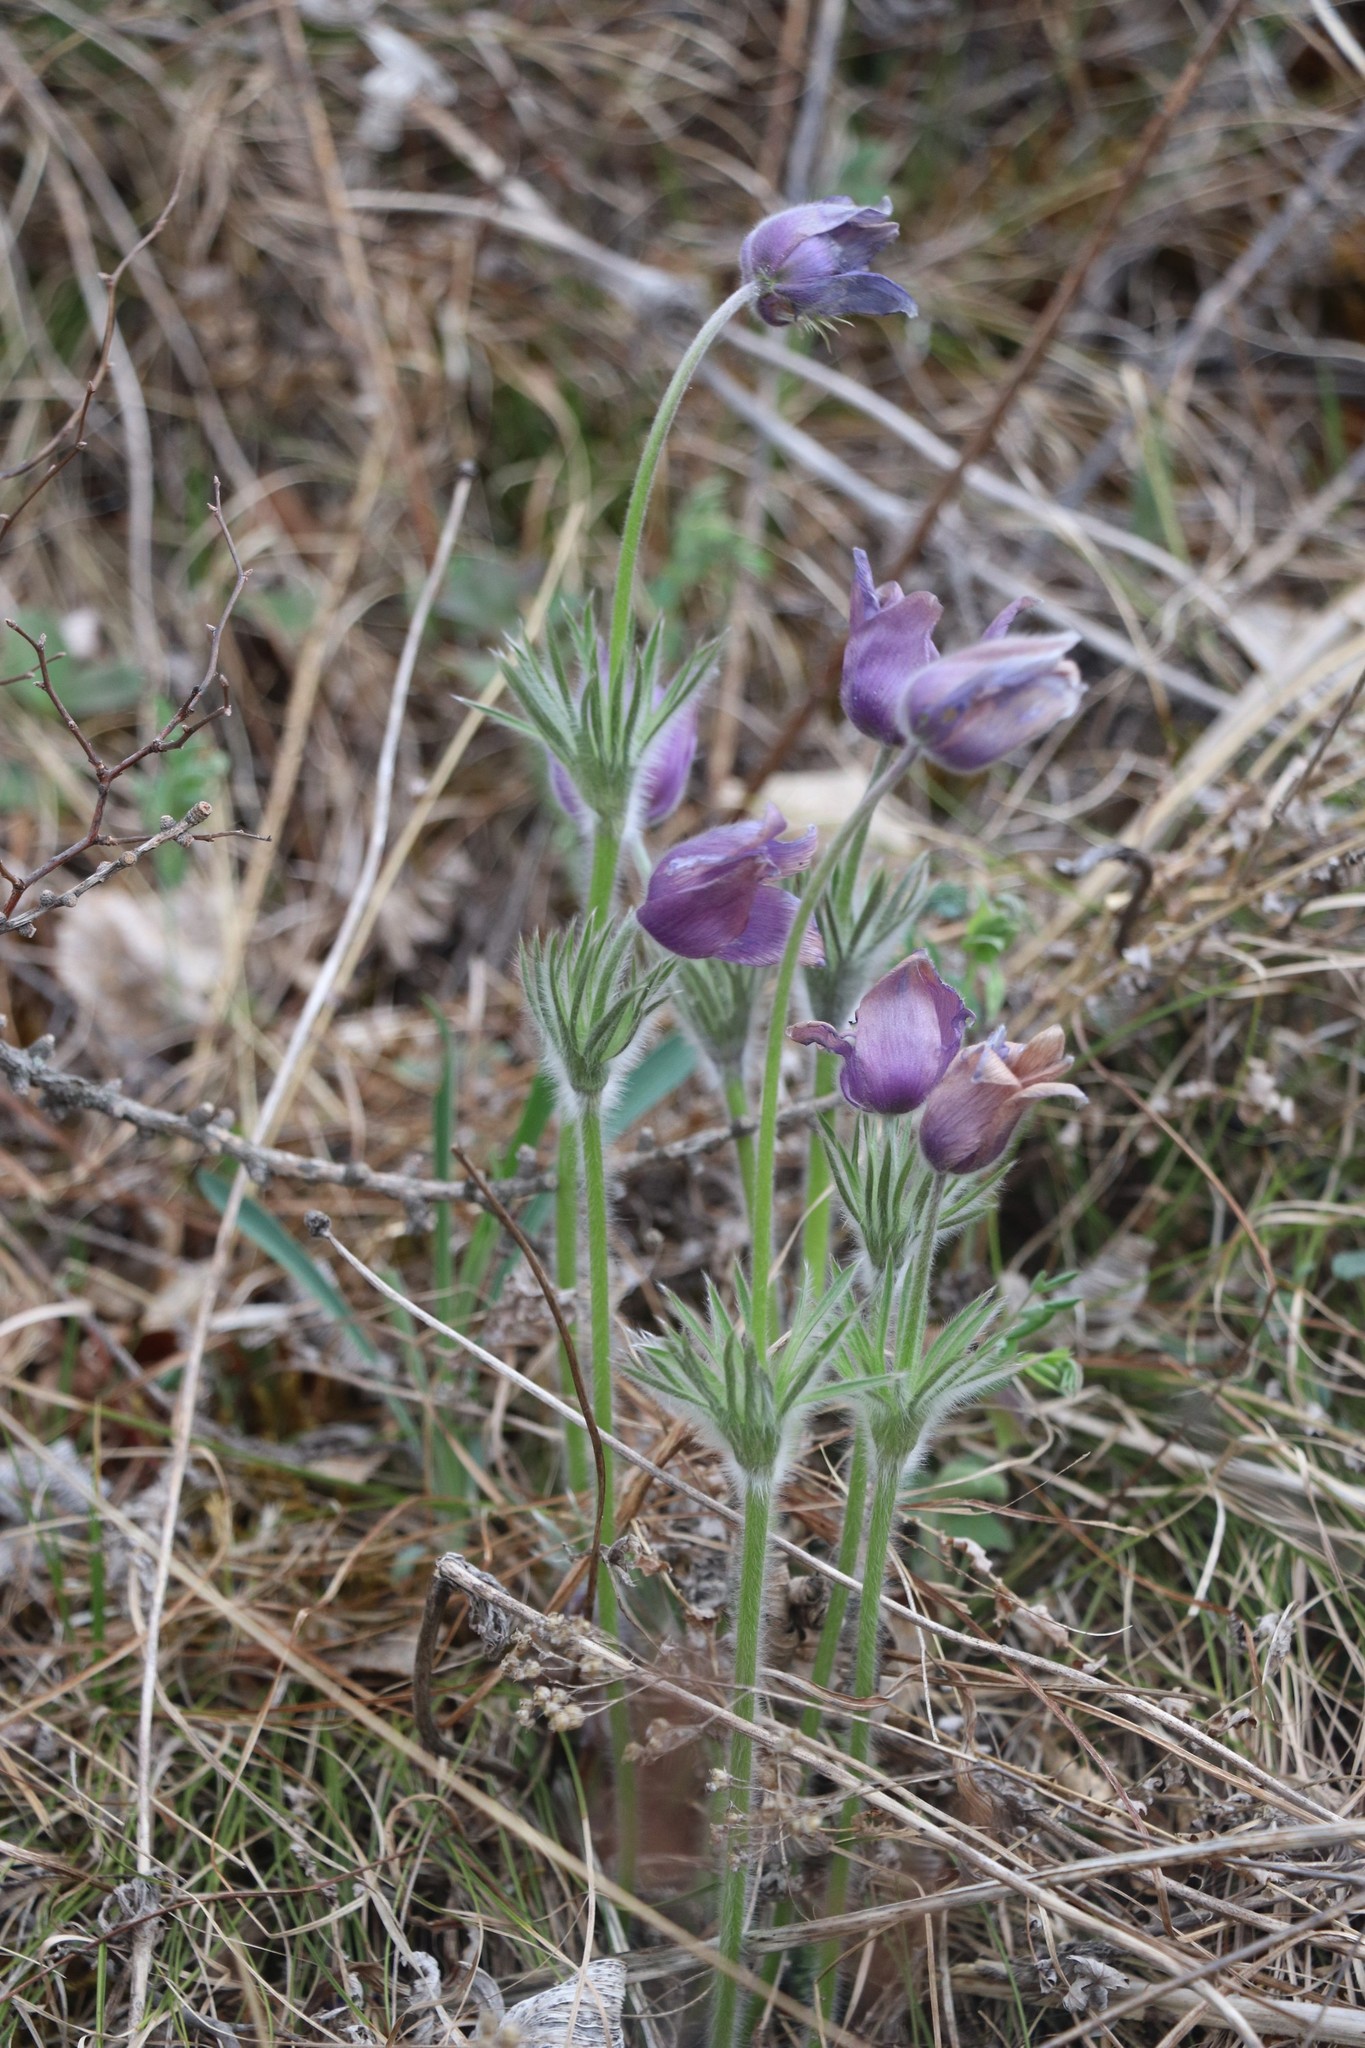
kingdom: Plantae
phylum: Tracheophyta
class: Magnoliopsida
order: Ranunculales
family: Ranunculaceae
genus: Pulsatilla
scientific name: Pulsatilla patens
